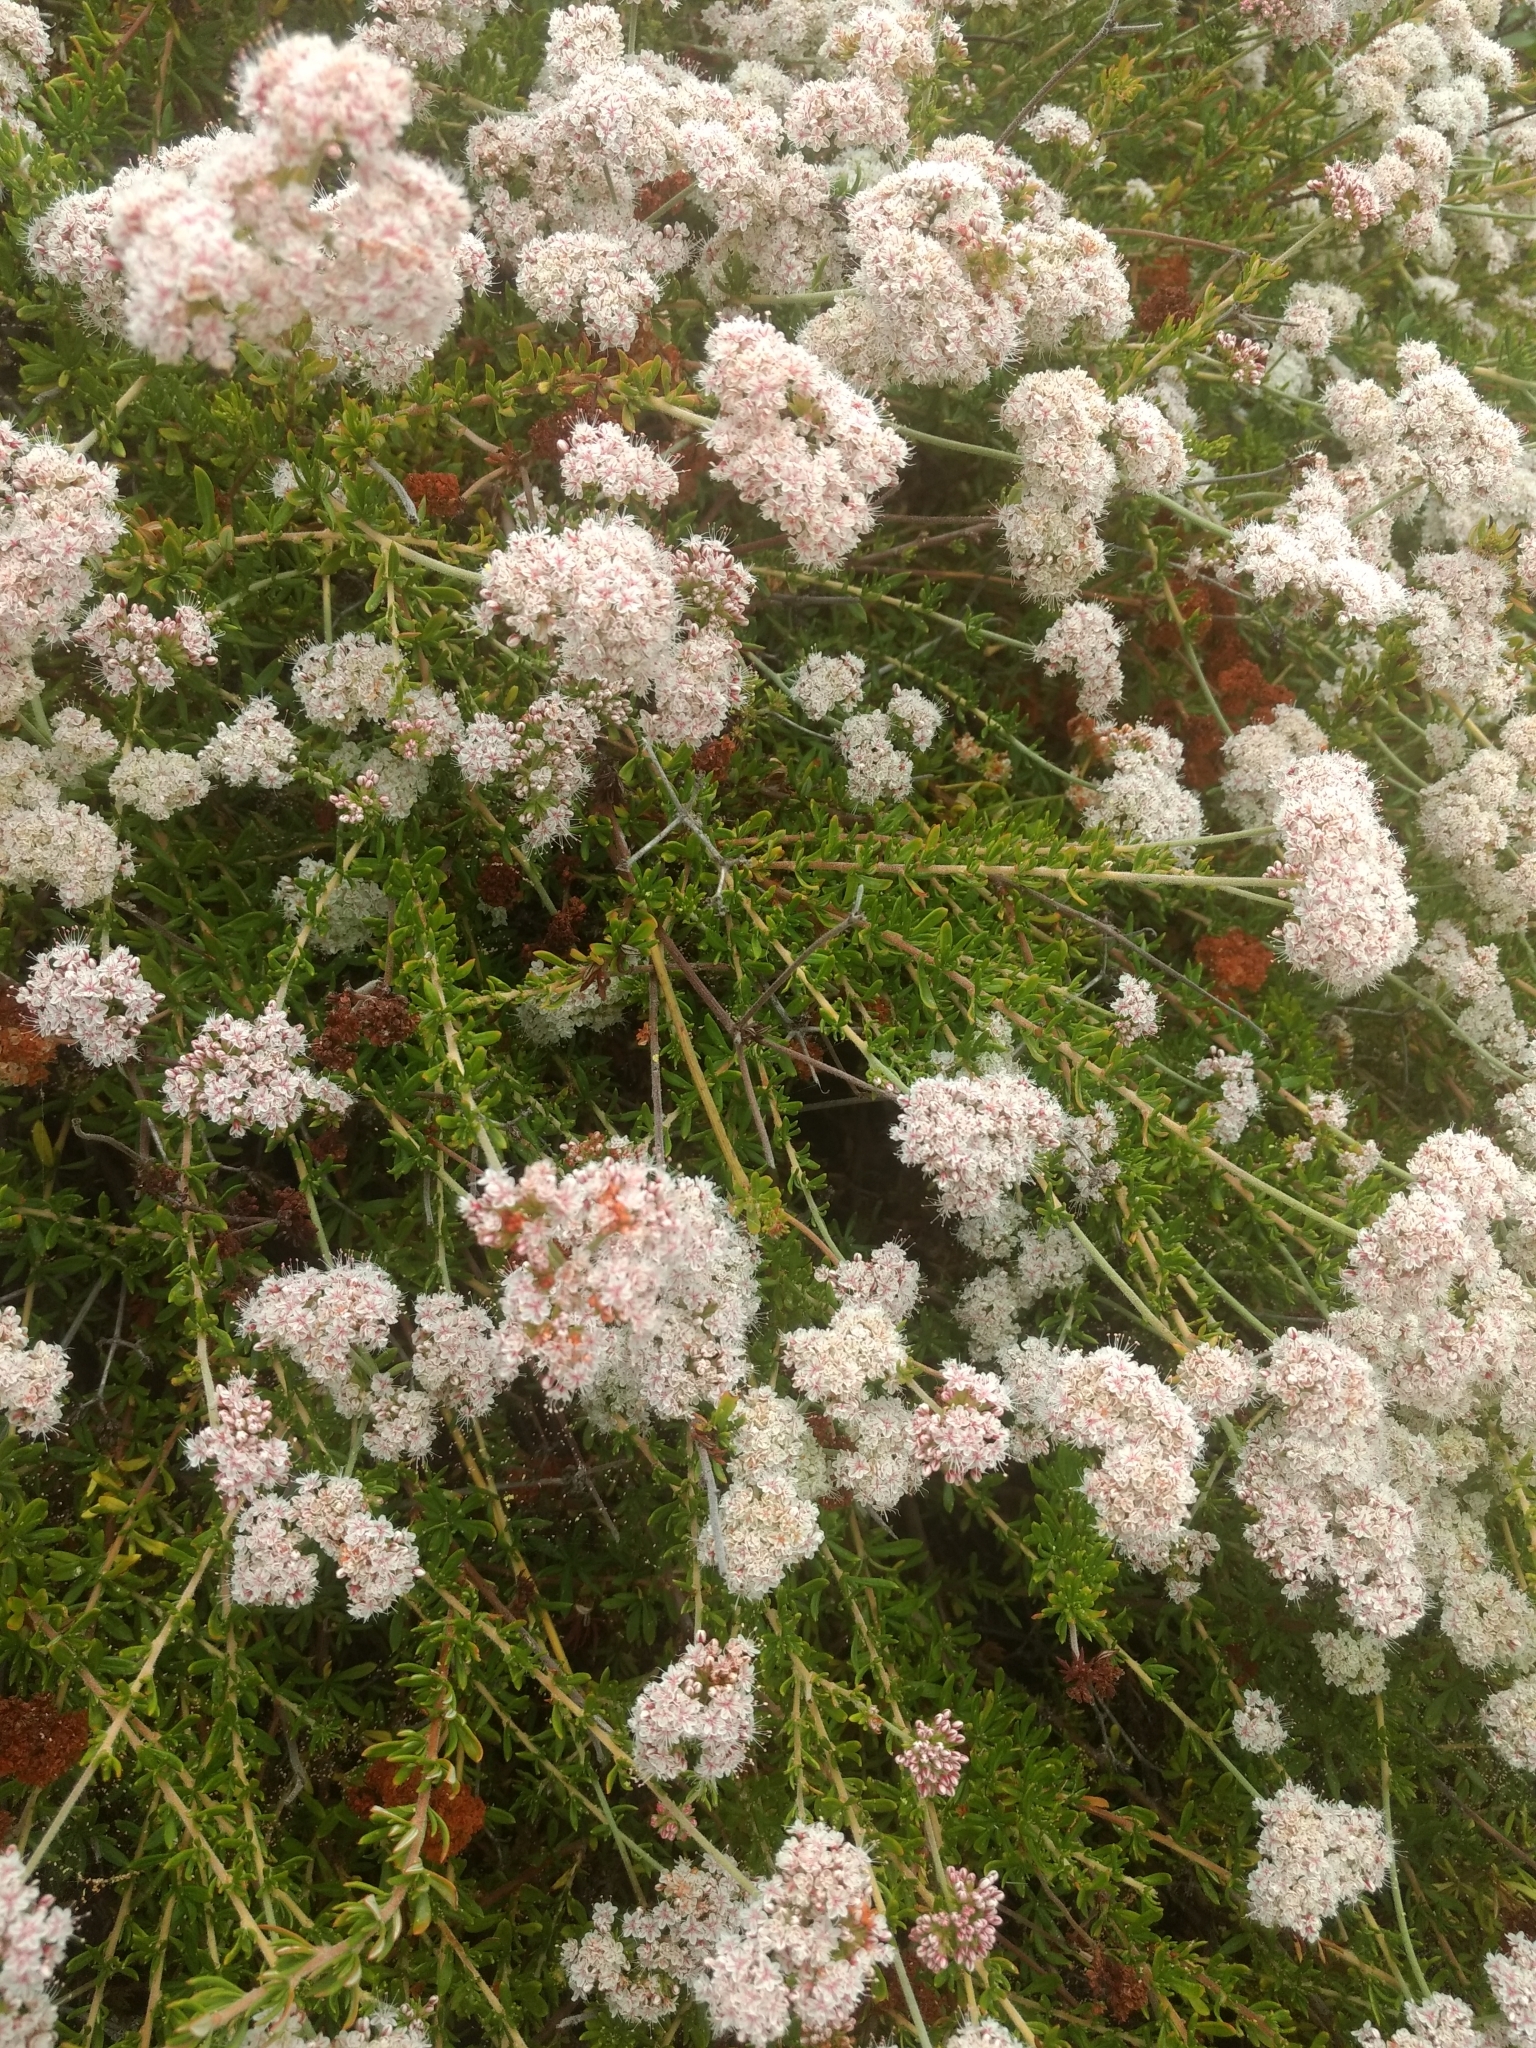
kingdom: Plantae
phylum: Tracheophyta
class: Magnoliopsida
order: Caryophyllales
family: Polygonaceae
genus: Eriogonum
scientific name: Eriogonum fasciculatum
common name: California wild buckwheat
